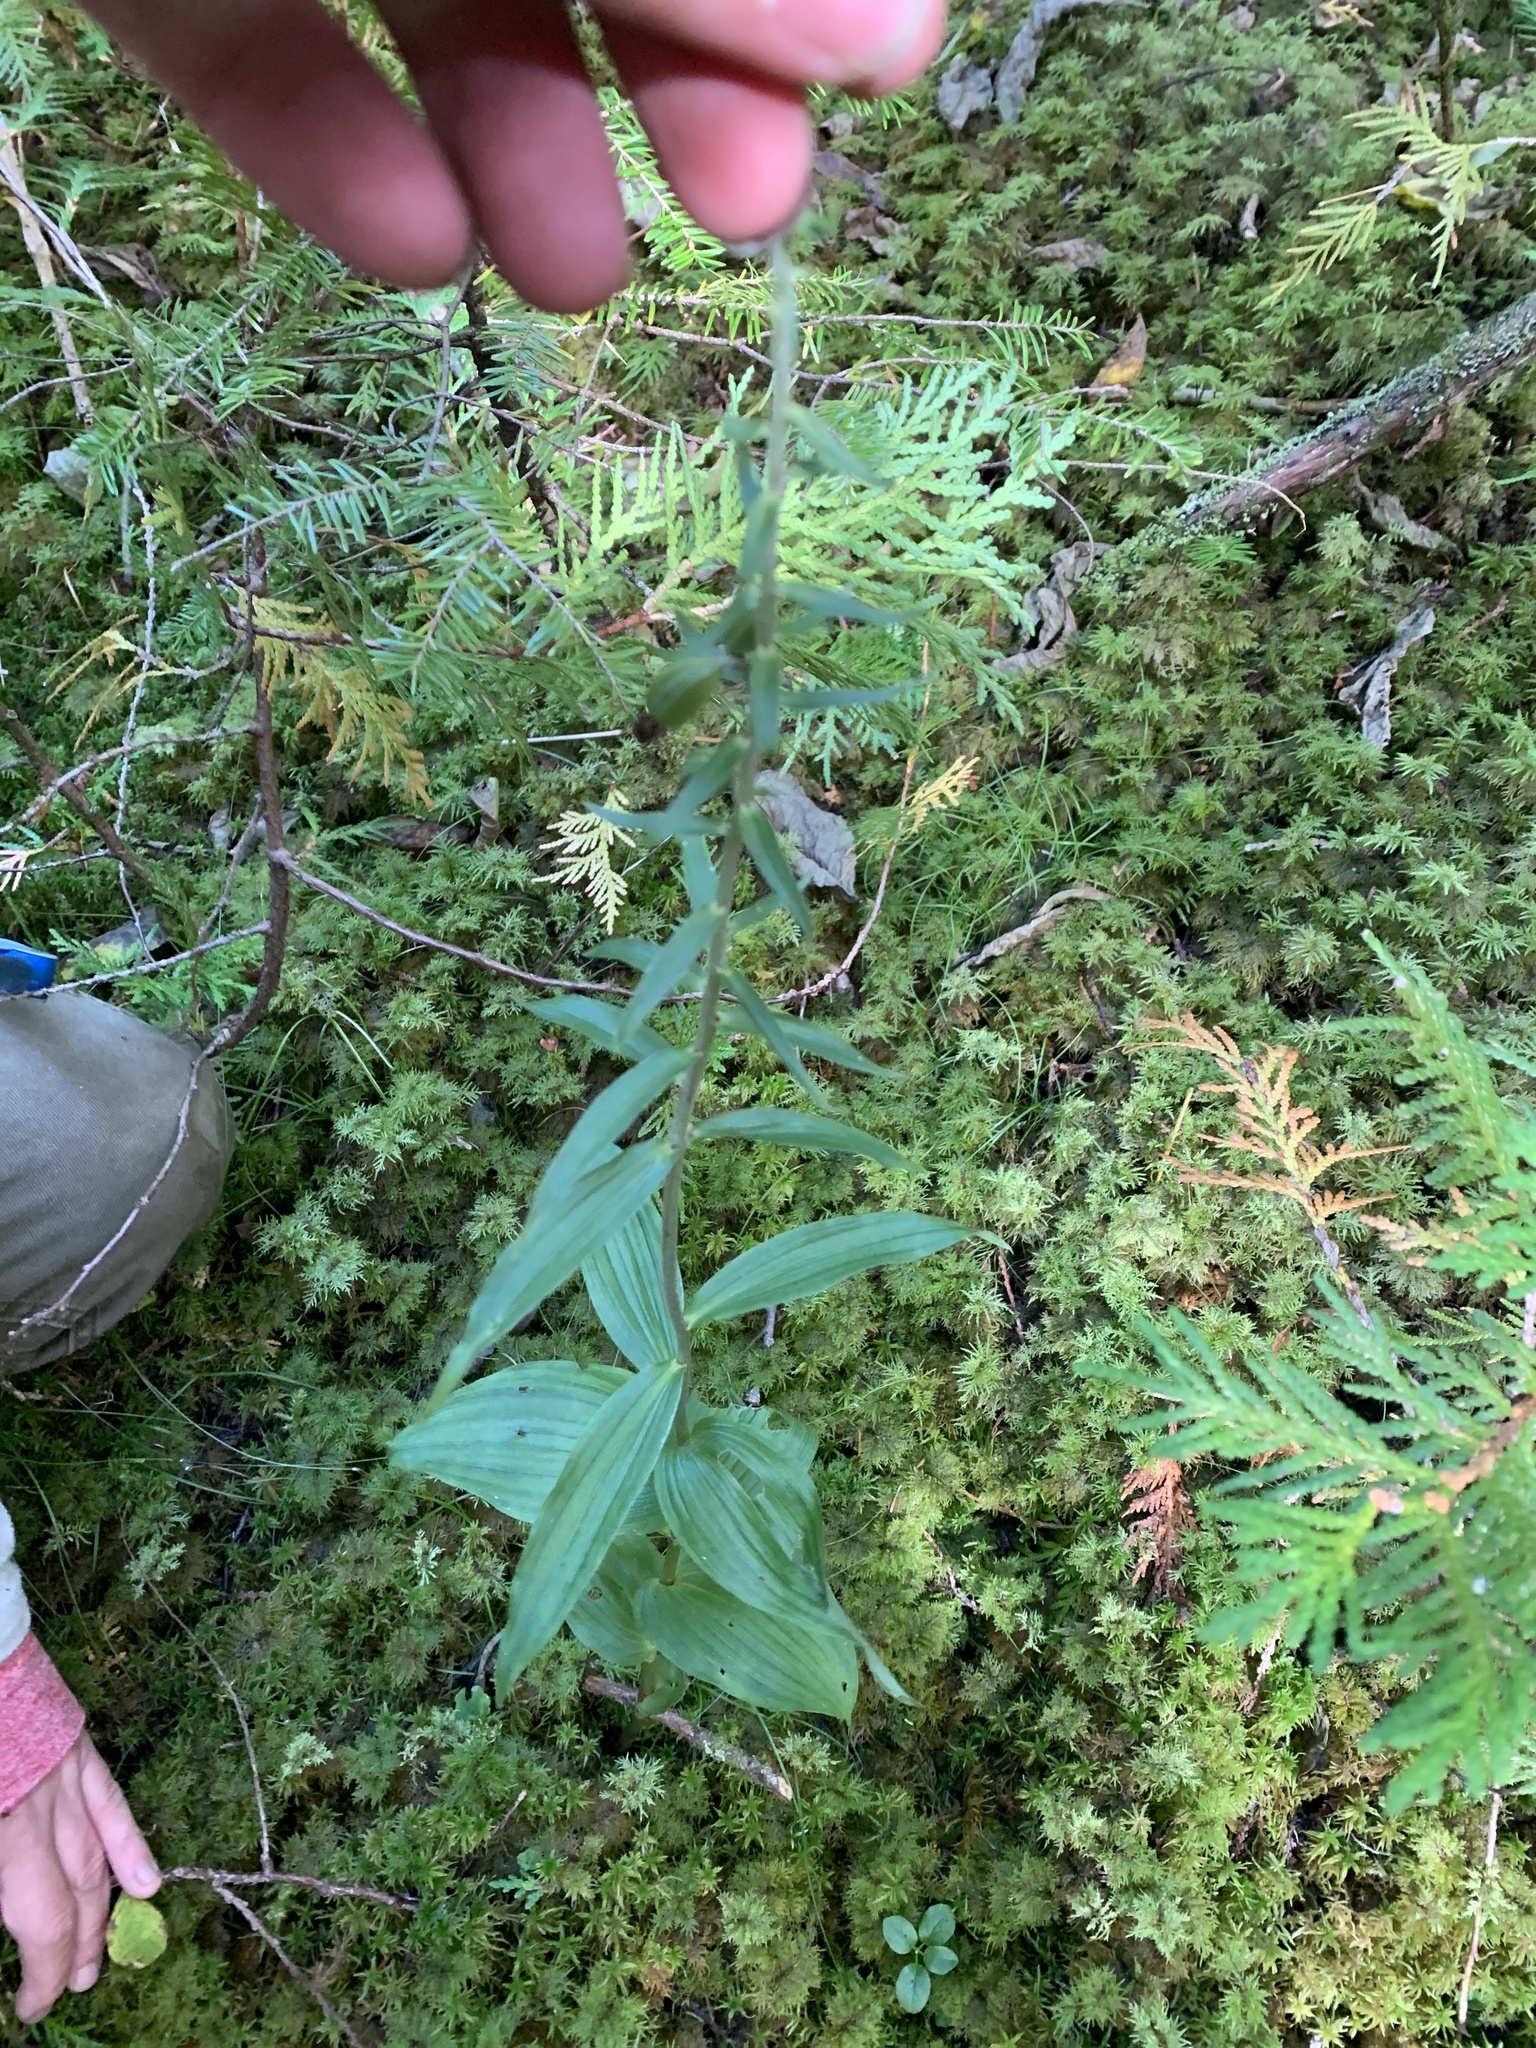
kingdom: Plantae
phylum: Tracheophyta
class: Liliopsida
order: Asparagales
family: Orchidaceae
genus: Epipactis
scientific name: Epipactis helleborine
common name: Broad-leaved helleborine
